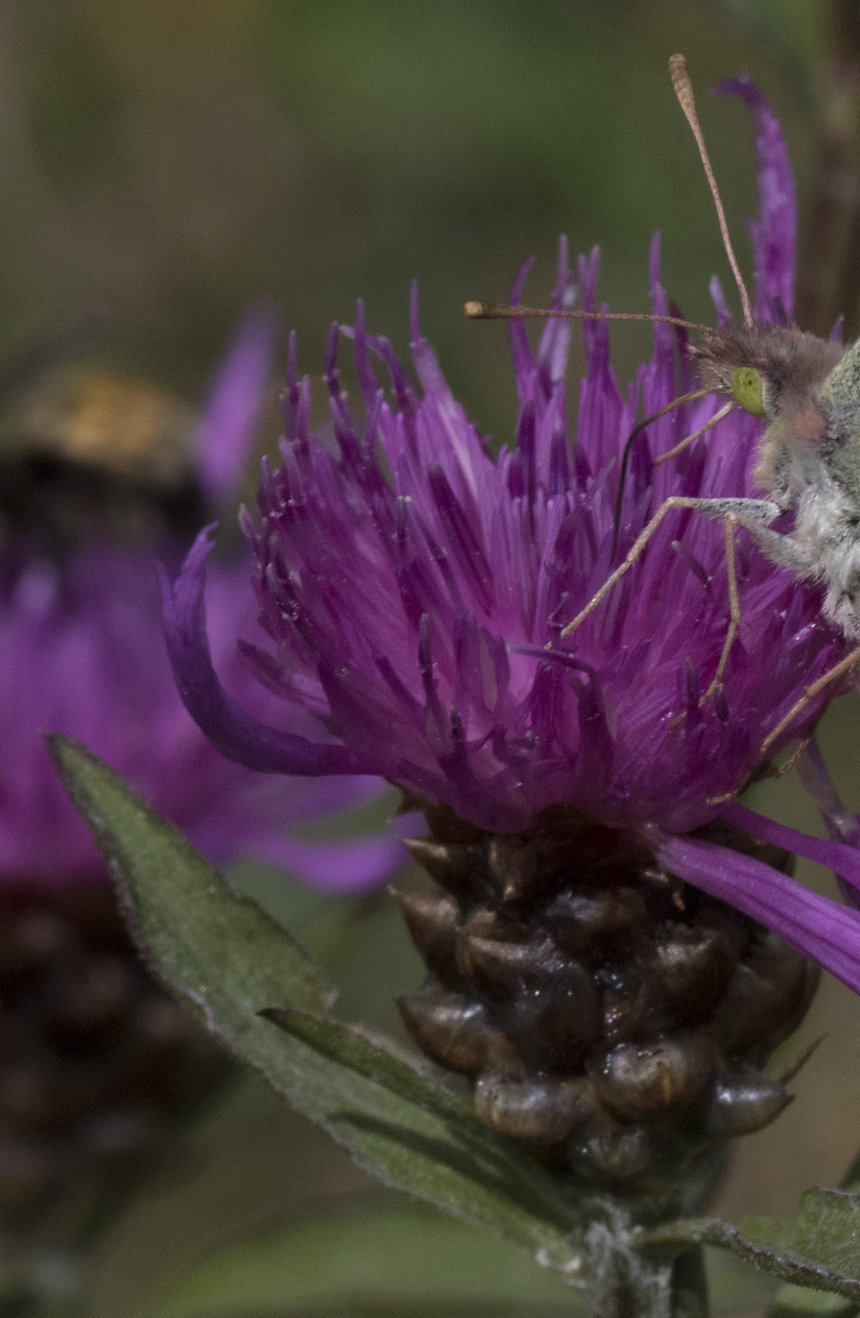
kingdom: Plantae
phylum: Tracheophyta
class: Magnoliopsida
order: Asterales
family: Asteraceae
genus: Centaurea
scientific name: Centaurea jacea
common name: Brown knapweed
